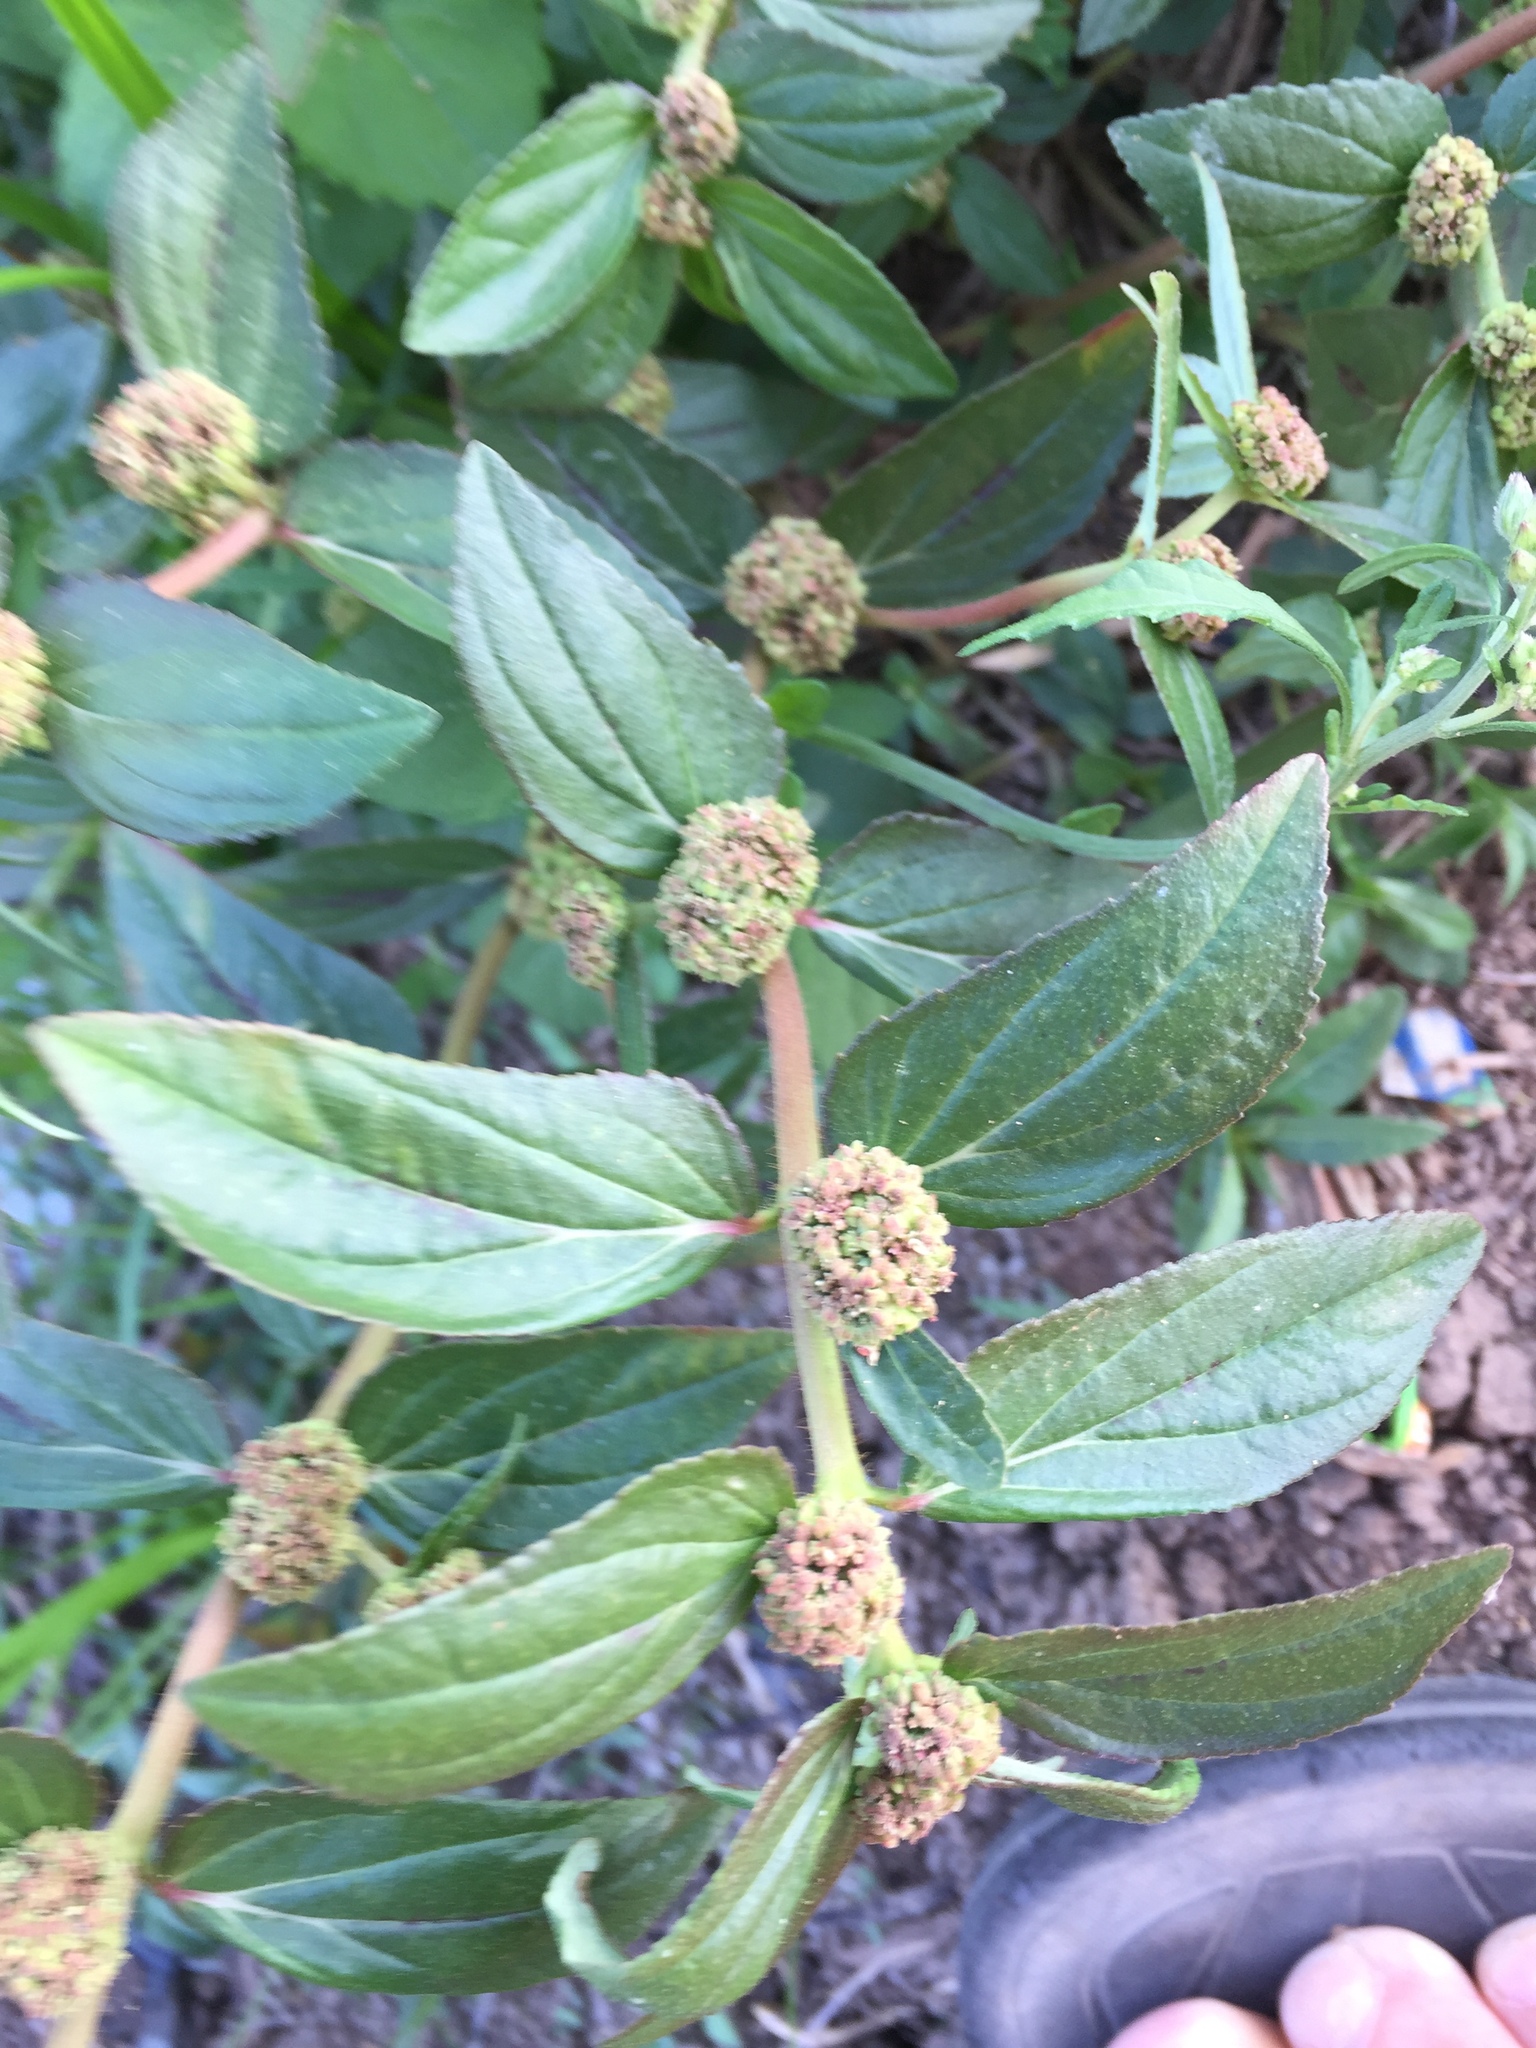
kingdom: Plantae
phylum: Tracheophyta
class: Magnoliopsida
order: Malpighiales
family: Euphorbiaceae
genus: Euphorbia
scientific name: Euphorbia hirta
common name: Pillpod sandmat
